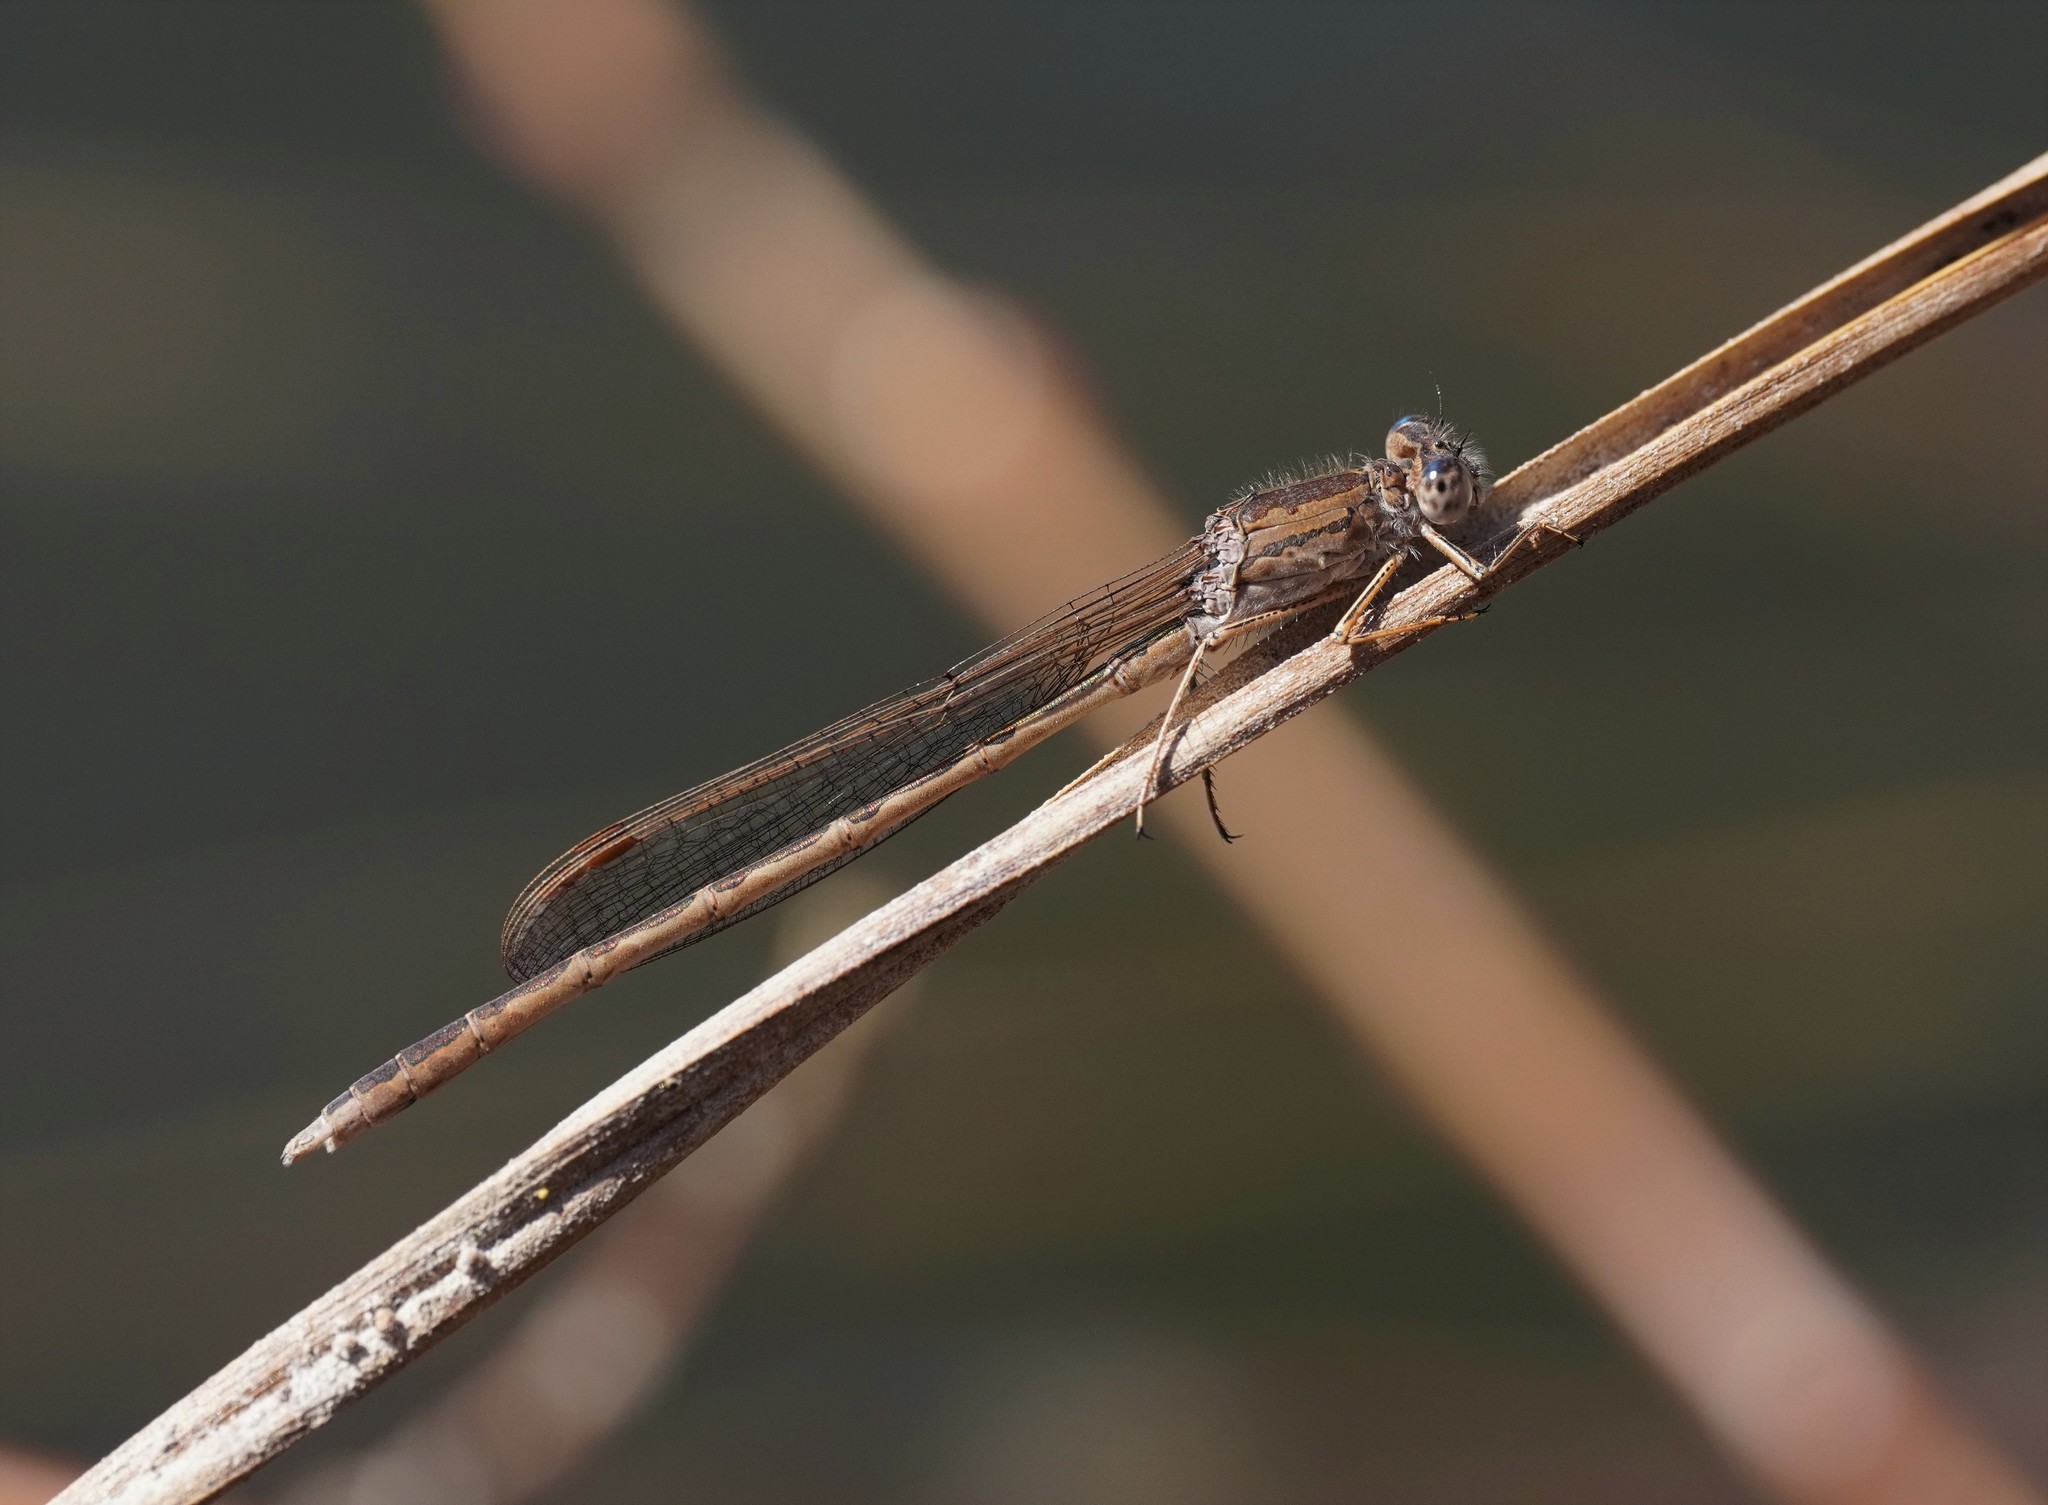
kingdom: Animalia
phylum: Arthropoda
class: Insecta
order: Odonata
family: Lestidae
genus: Sympecma
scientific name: Sympecma paedisca
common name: Siberian winter damsel
